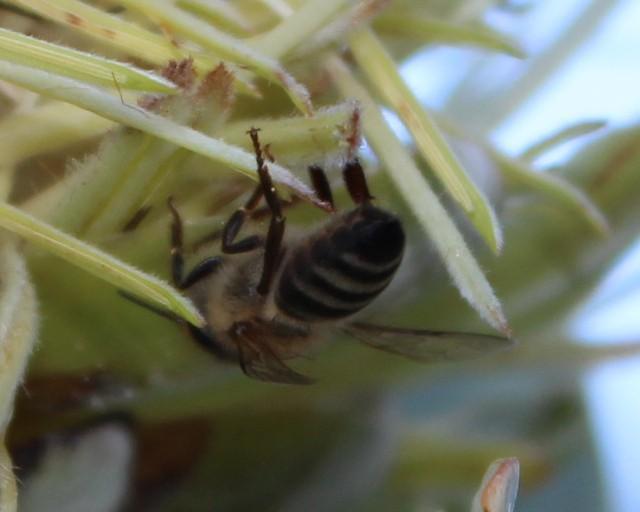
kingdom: Animalia
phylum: Arthropoda
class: Insecta
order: Hymenoptera
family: Apidae
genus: Apis
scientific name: Apis mellifera
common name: Honey bee
